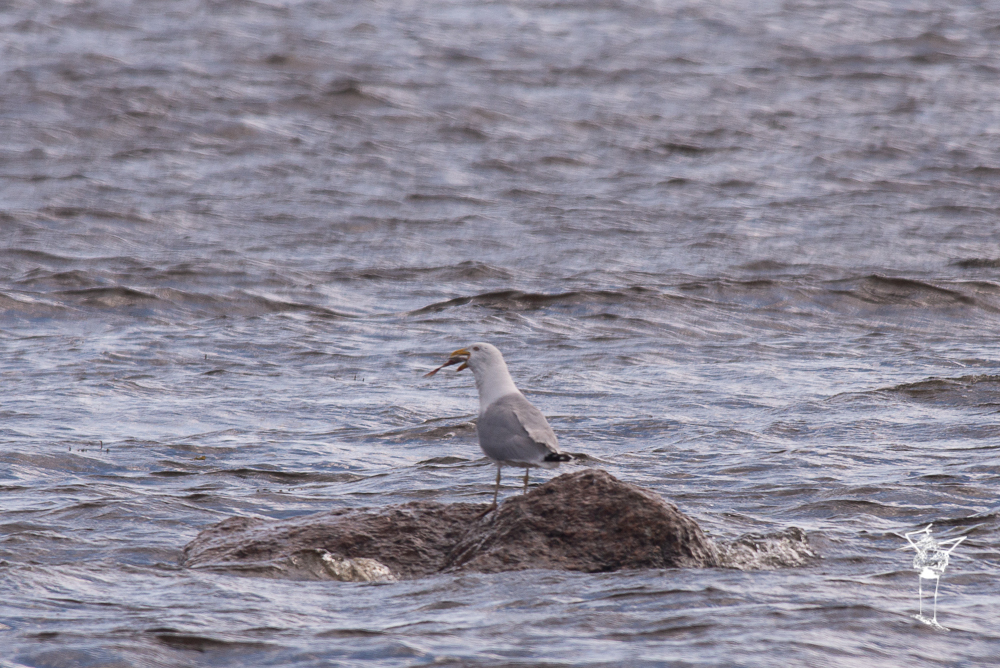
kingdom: Animalia
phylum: Chordata
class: Aves
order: Charadriiformes
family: Laridae
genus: Larus
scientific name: Larus argentatus
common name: Herring gull
